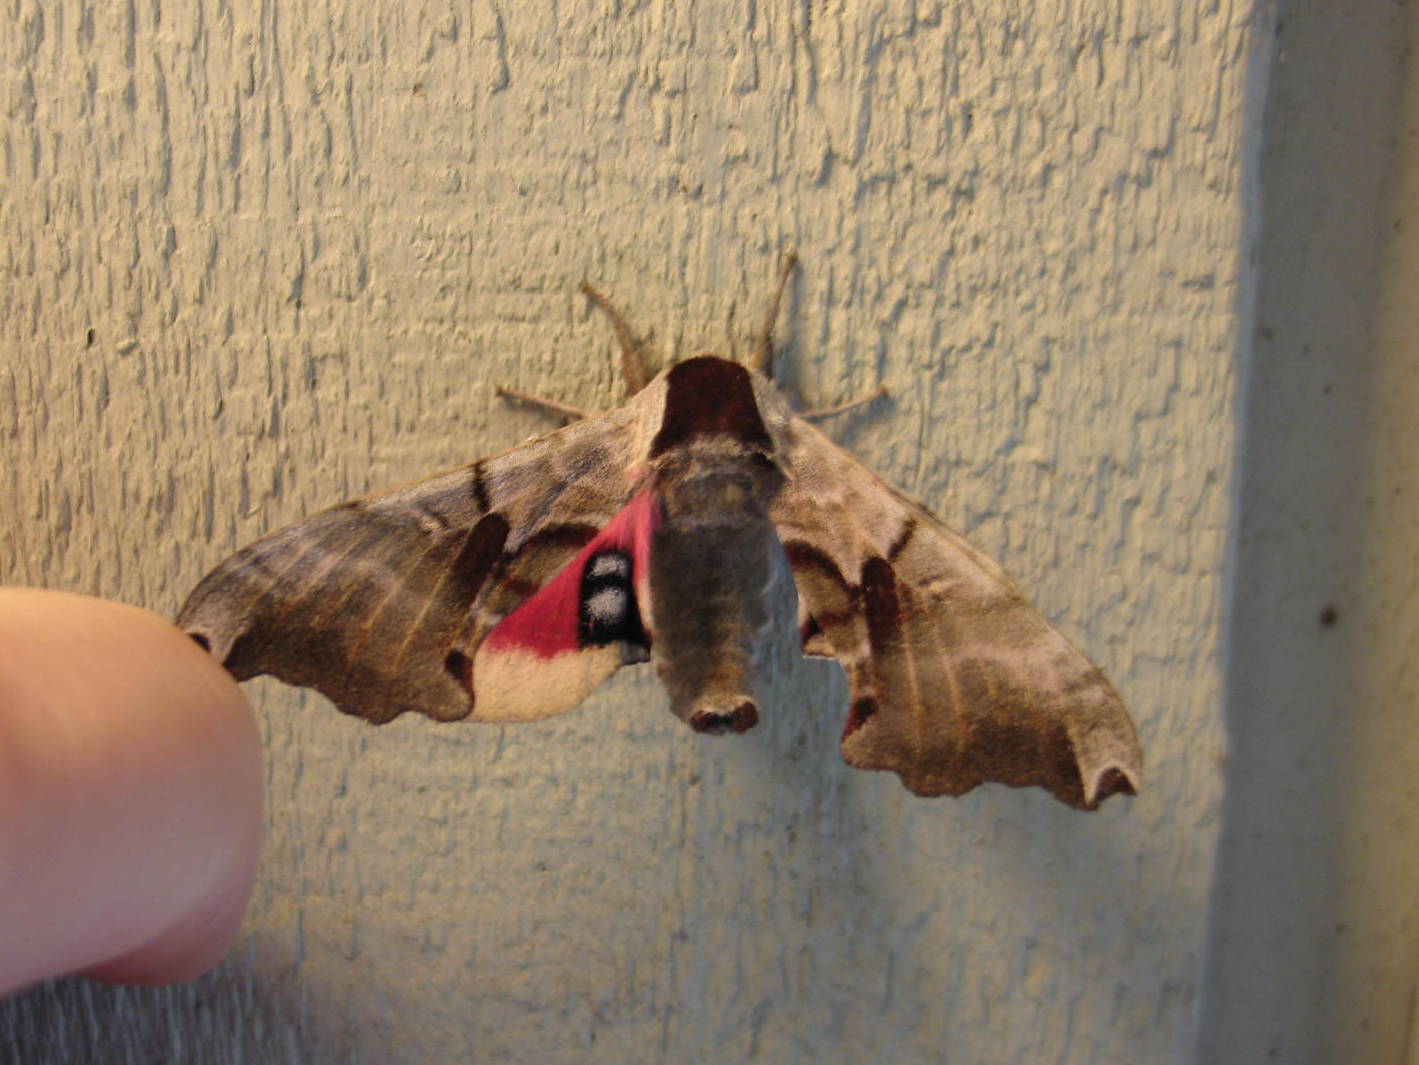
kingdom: Animalia
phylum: Arthropoda
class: Insecta
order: Lepidoptera
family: Sphingidae
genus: Smerinthus
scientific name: Smerinthus jamaicensis
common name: Twin spotted sphinx
